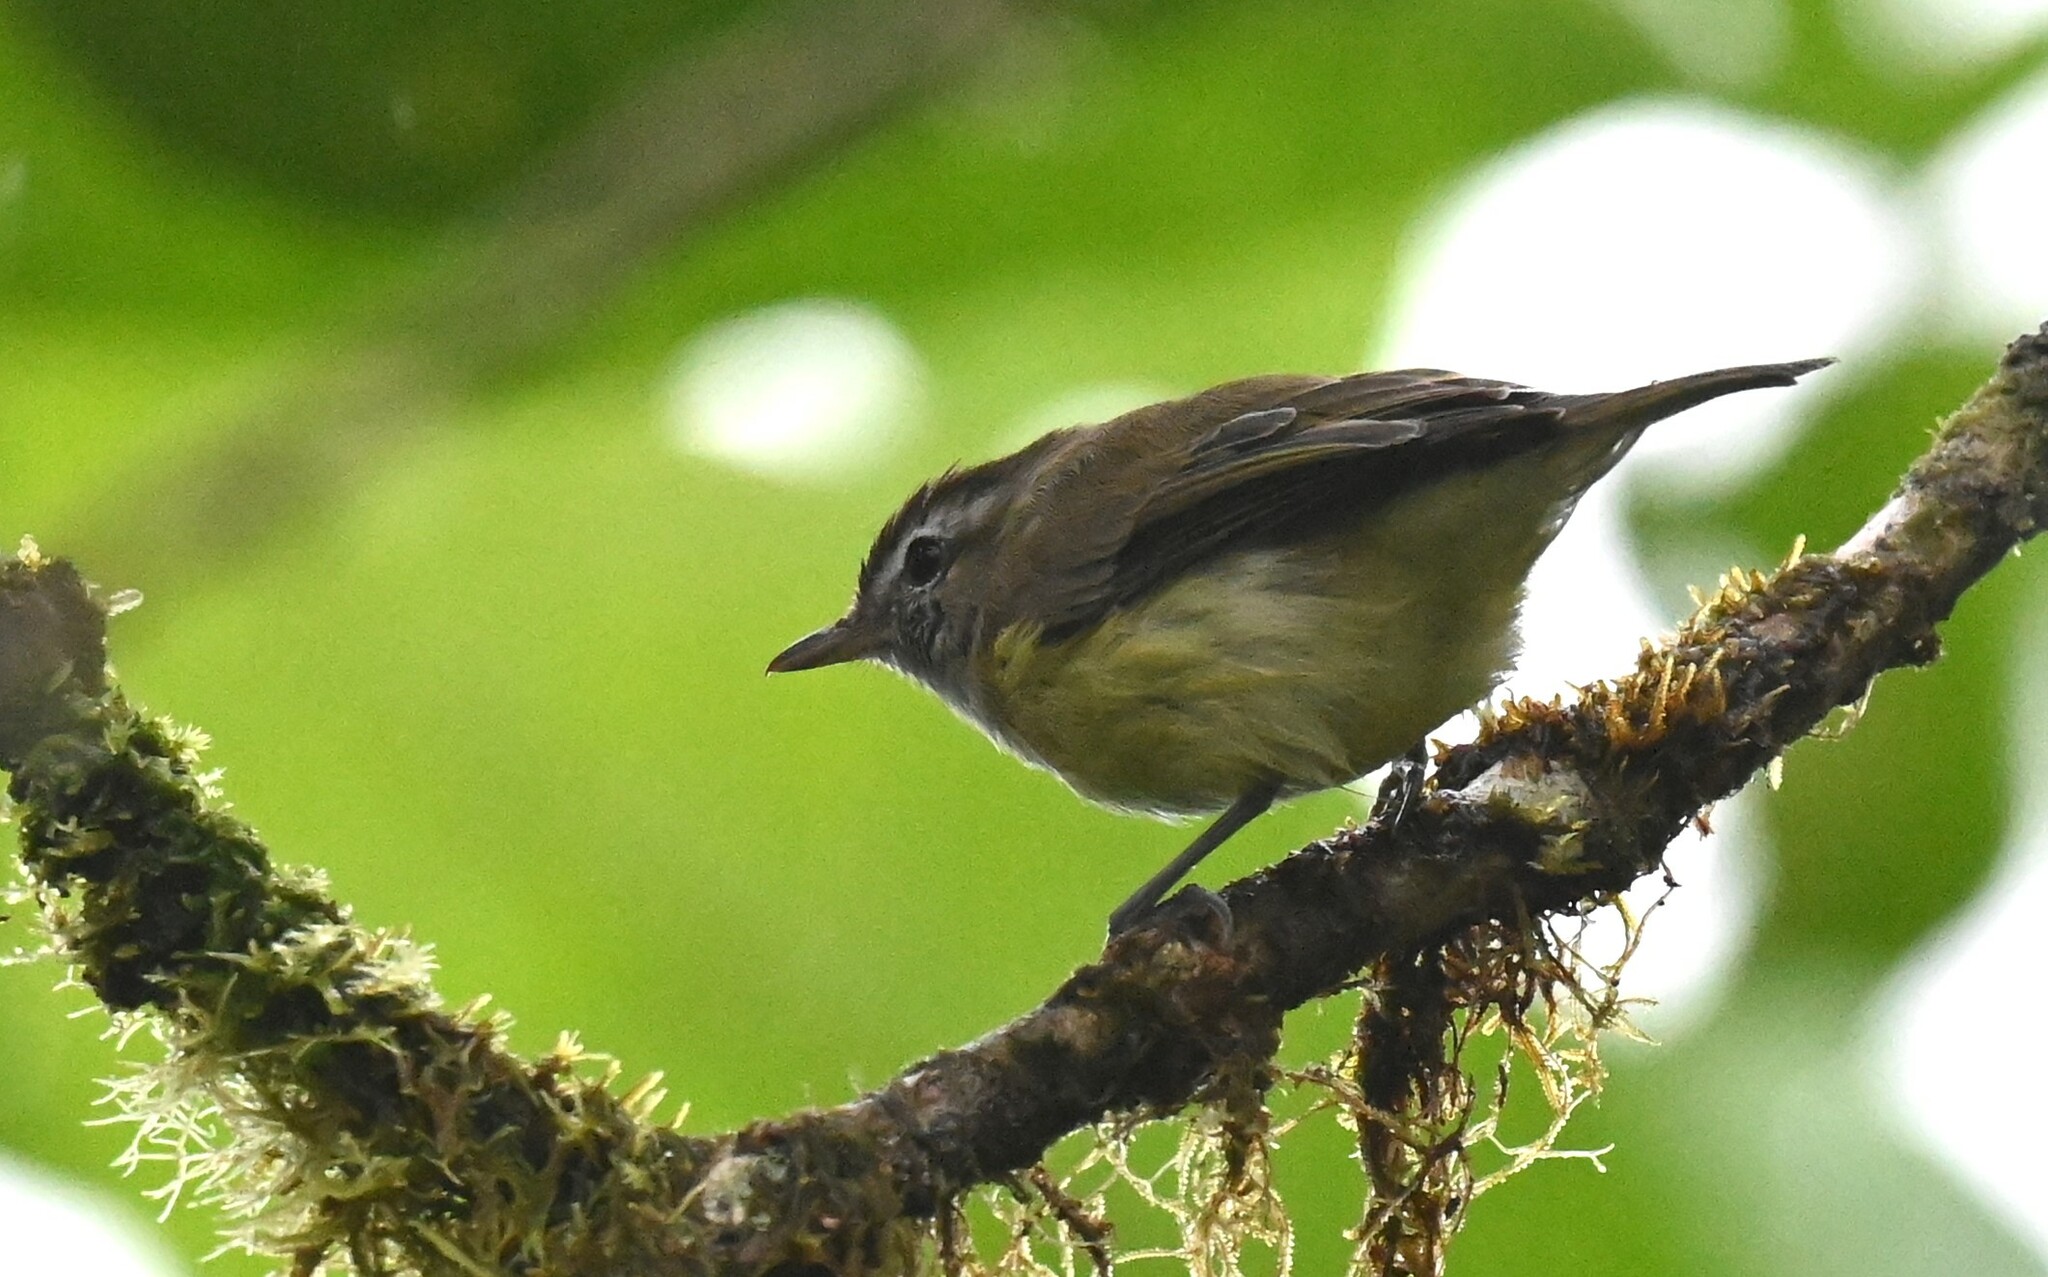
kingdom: Animalia
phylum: Chordata
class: Aves
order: Passeriformes
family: Vireonidae
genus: Vireo
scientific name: Vireo leucophrys
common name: Brown-capped vireo
